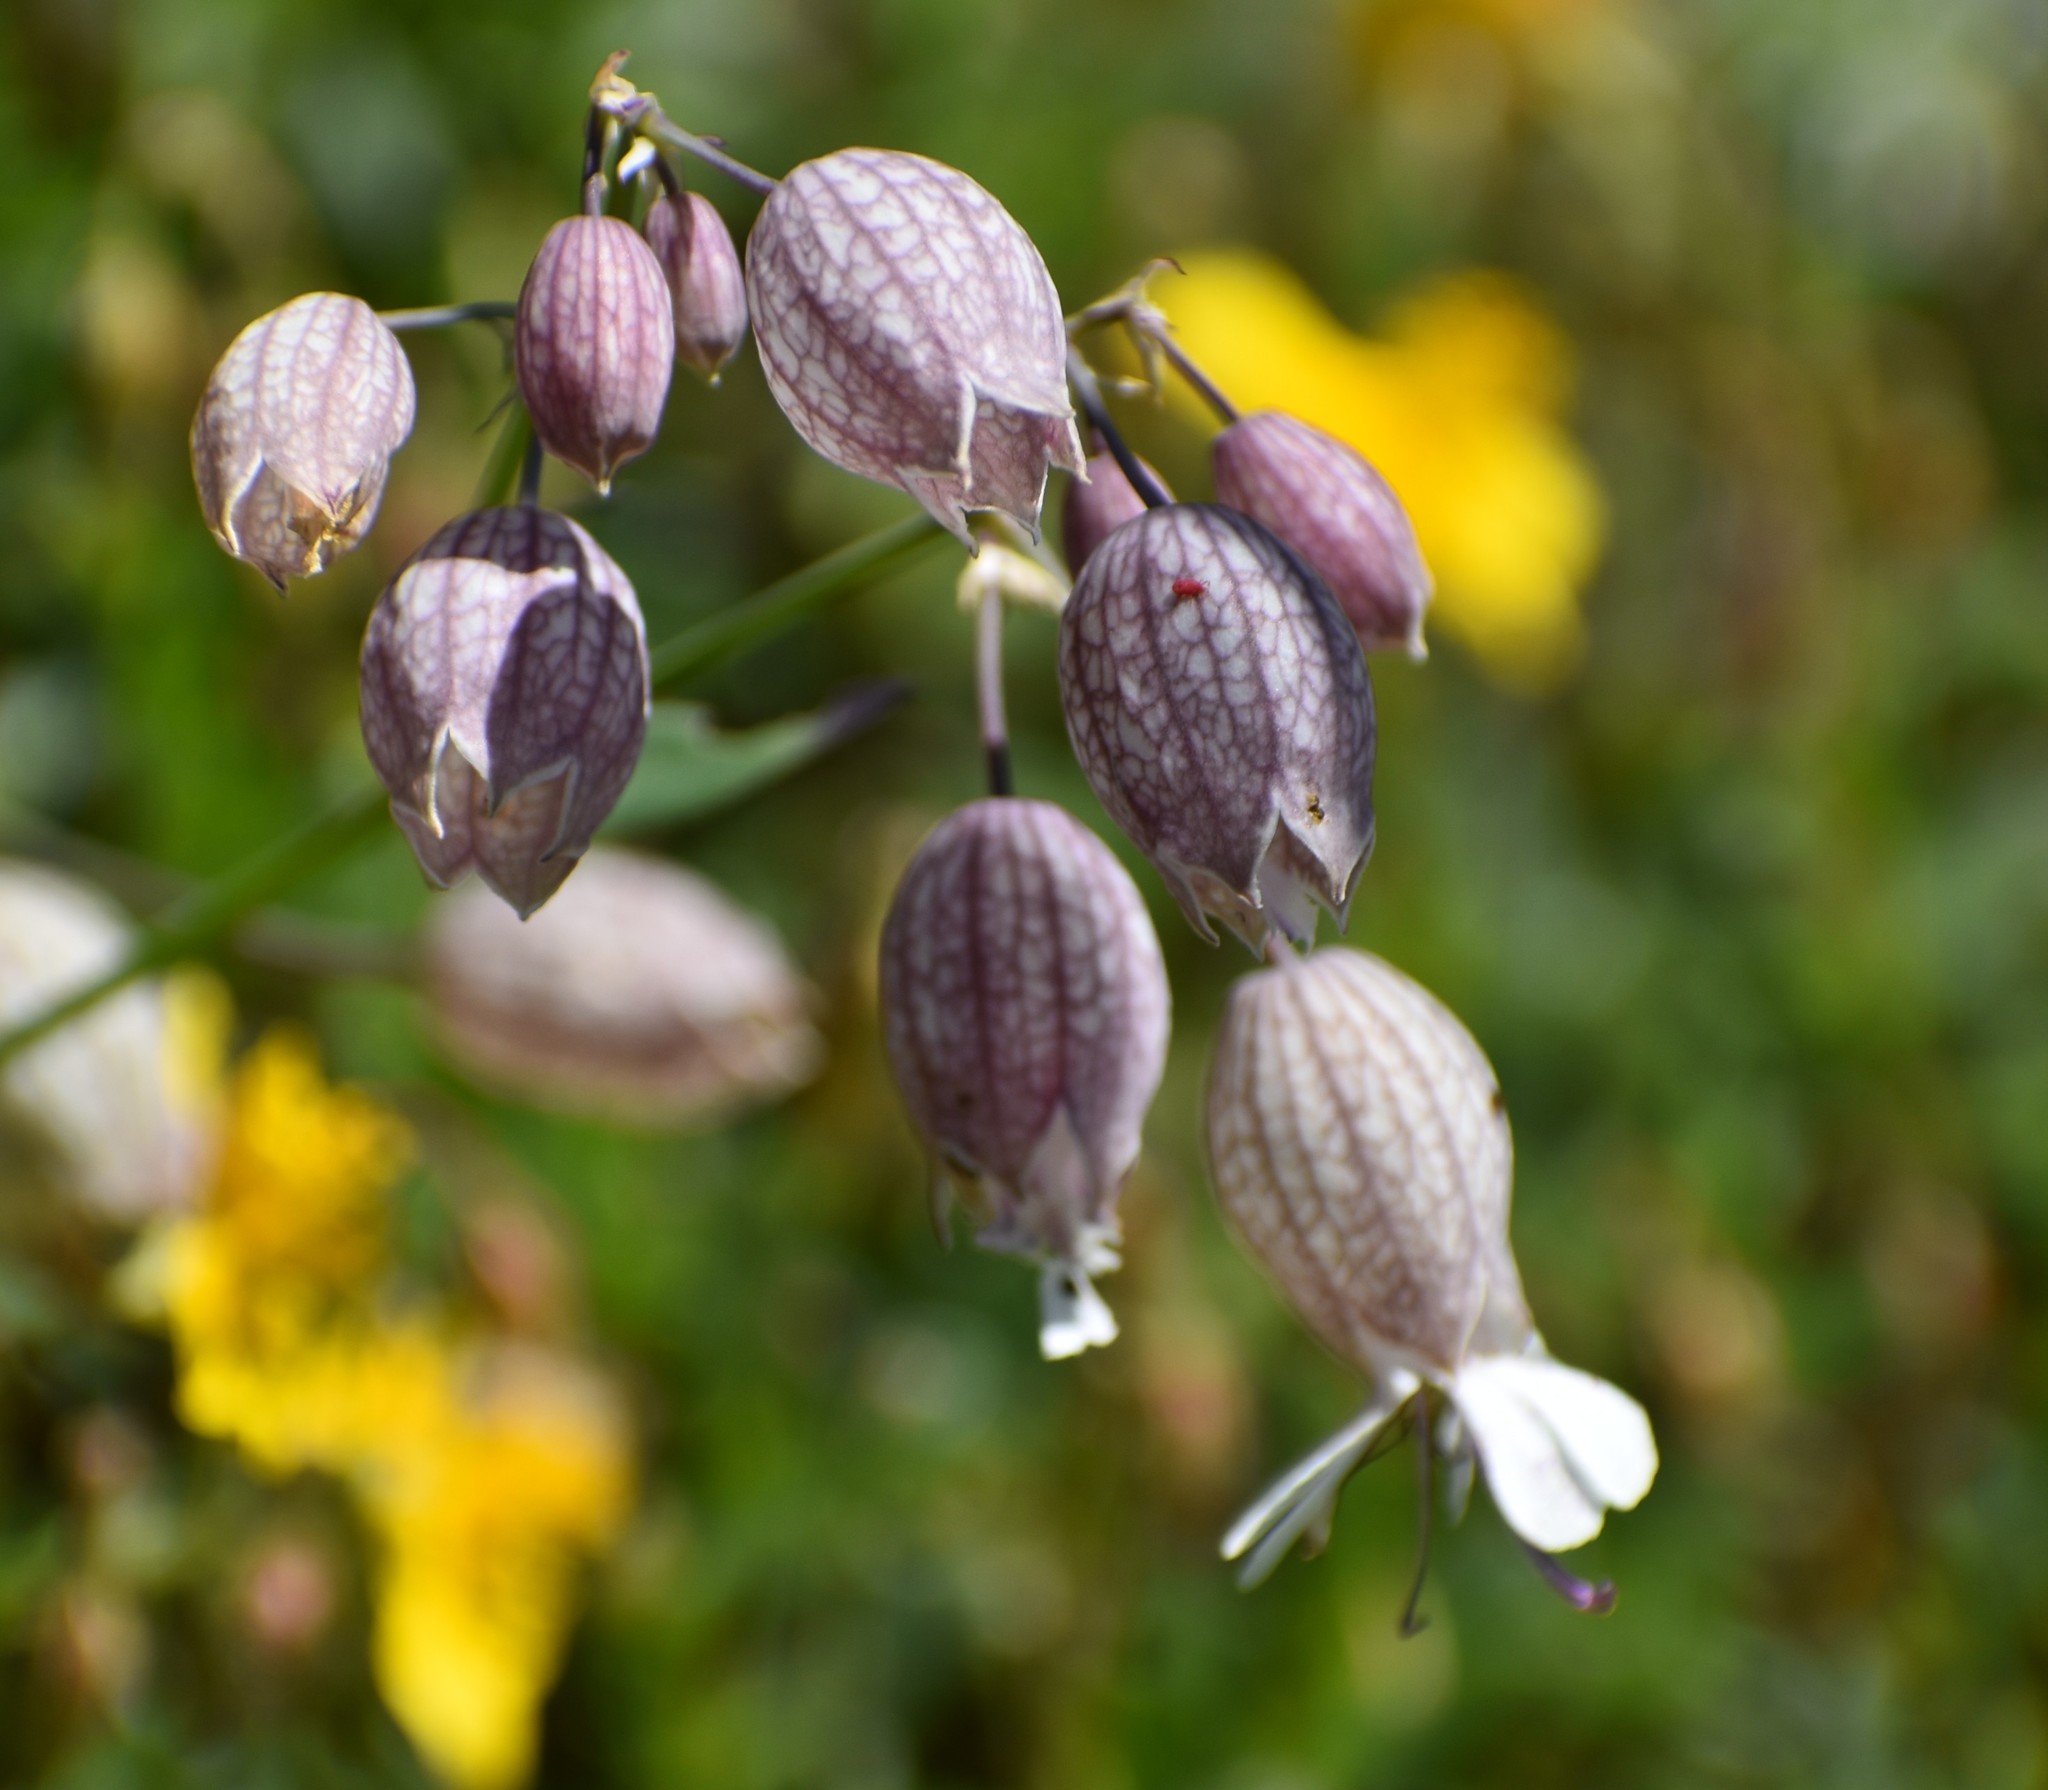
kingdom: Plantae
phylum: Tracheophyta
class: Magnoliopsida
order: Caryophyllales
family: Caryophyllaceae
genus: Silene
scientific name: Silene vulgaris
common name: Bladder campion
